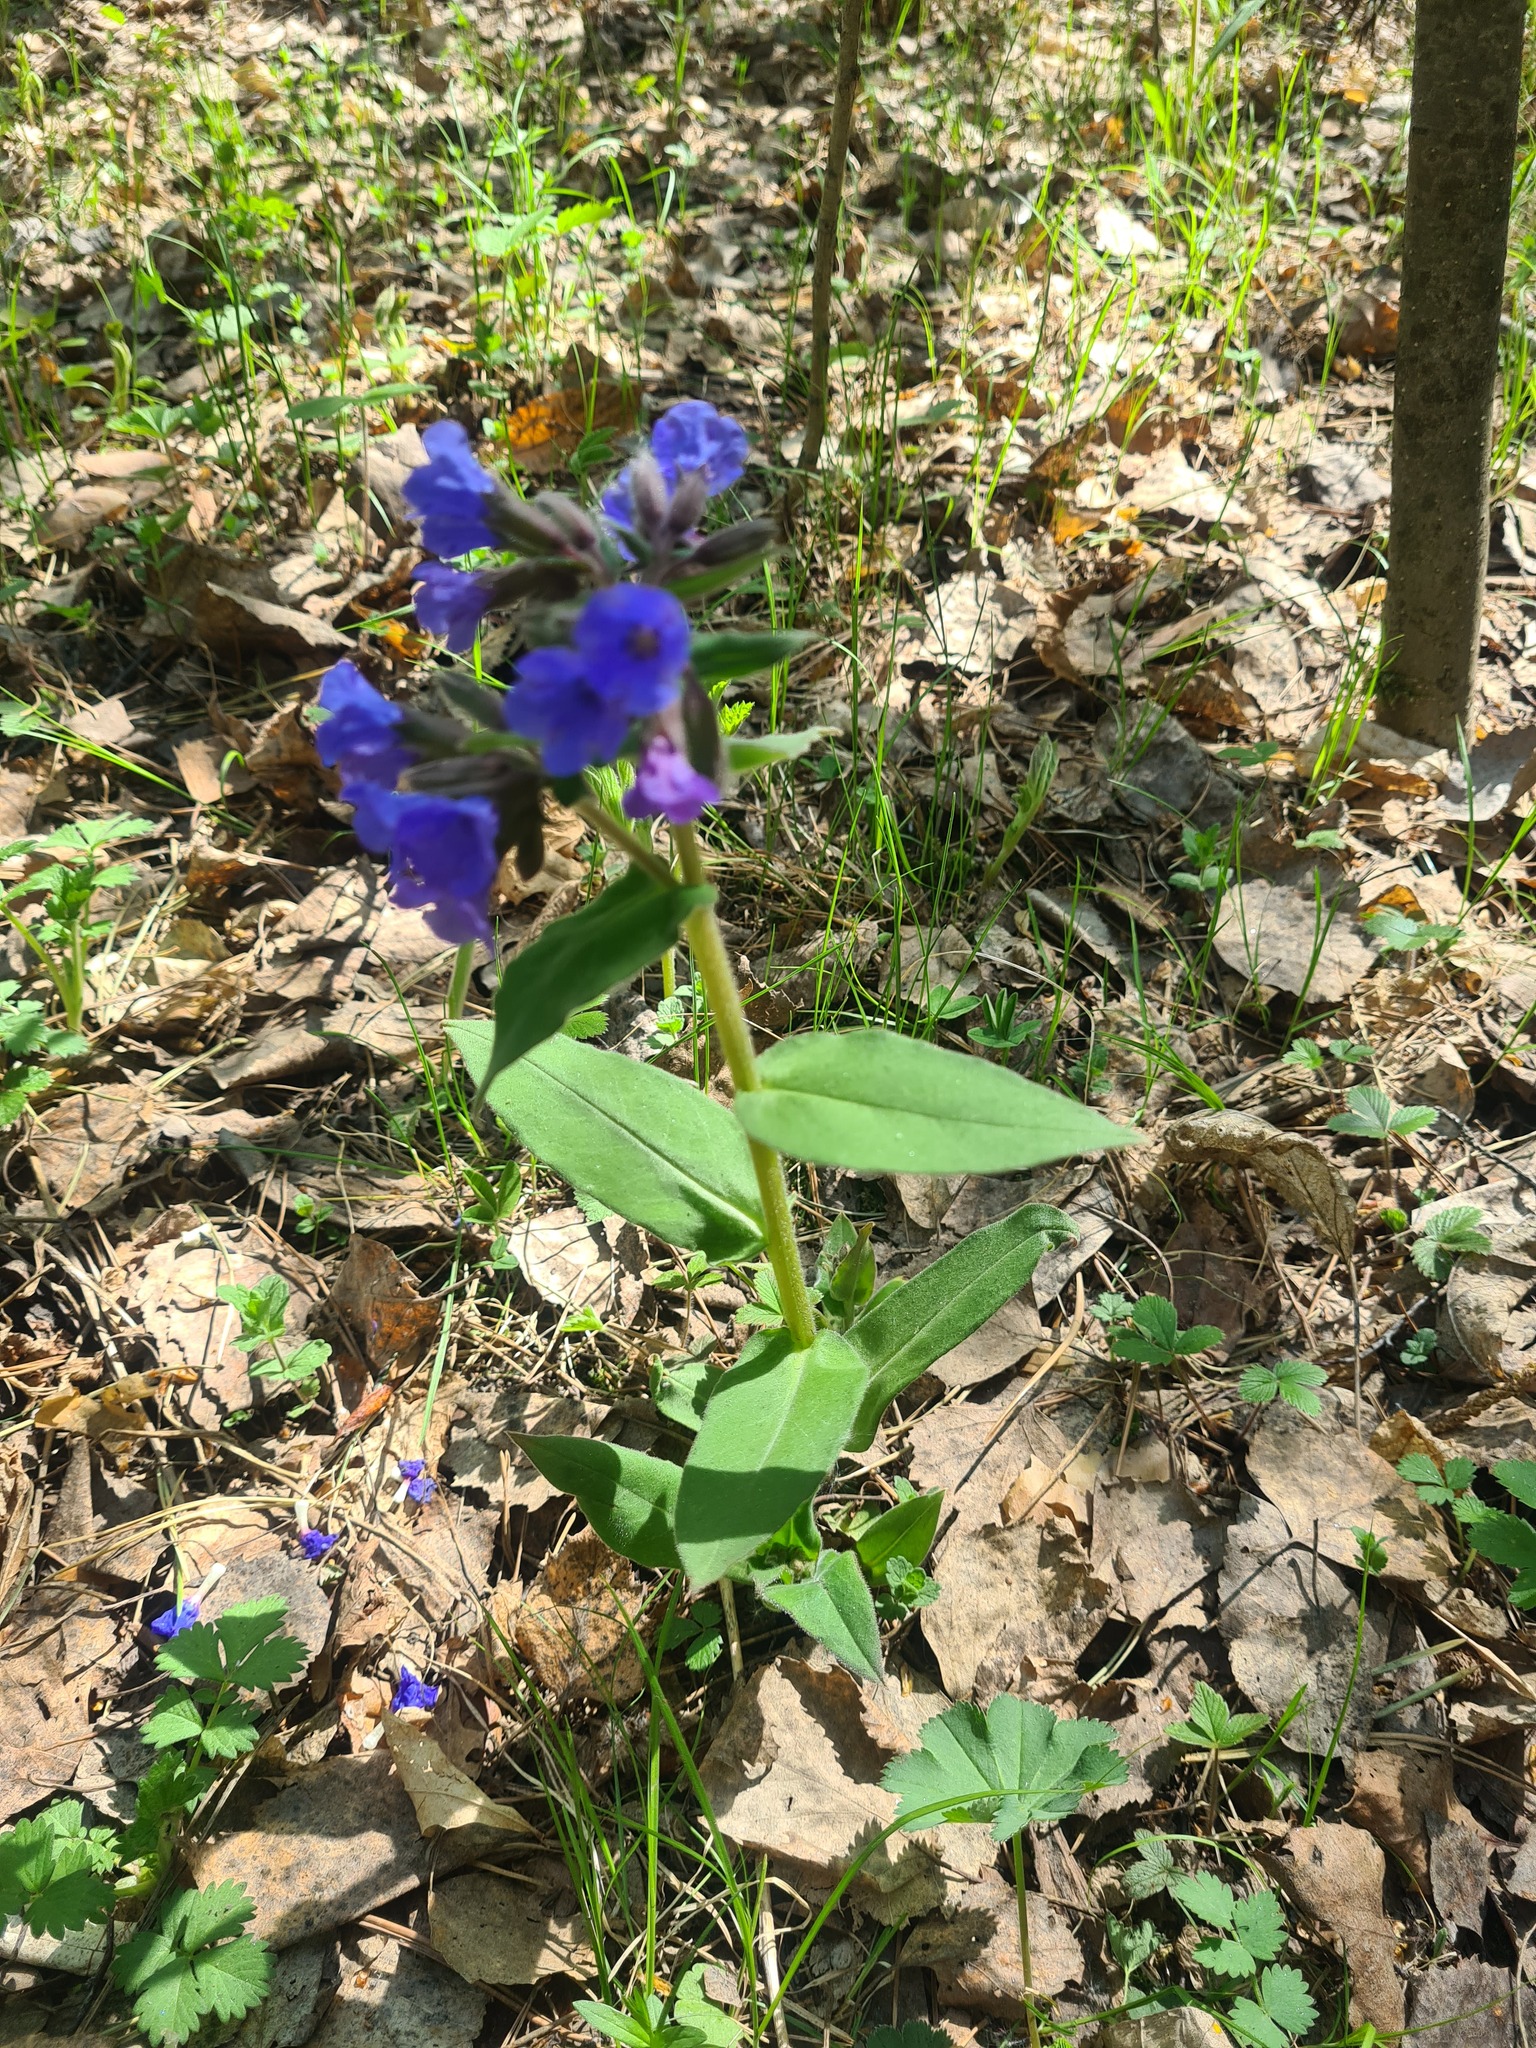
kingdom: Plantae
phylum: Tracheophyta
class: Magnoliopsida
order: Boraginales
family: Boraginaceae
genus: Pulmonaria
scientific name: Pulmonaria mollis
